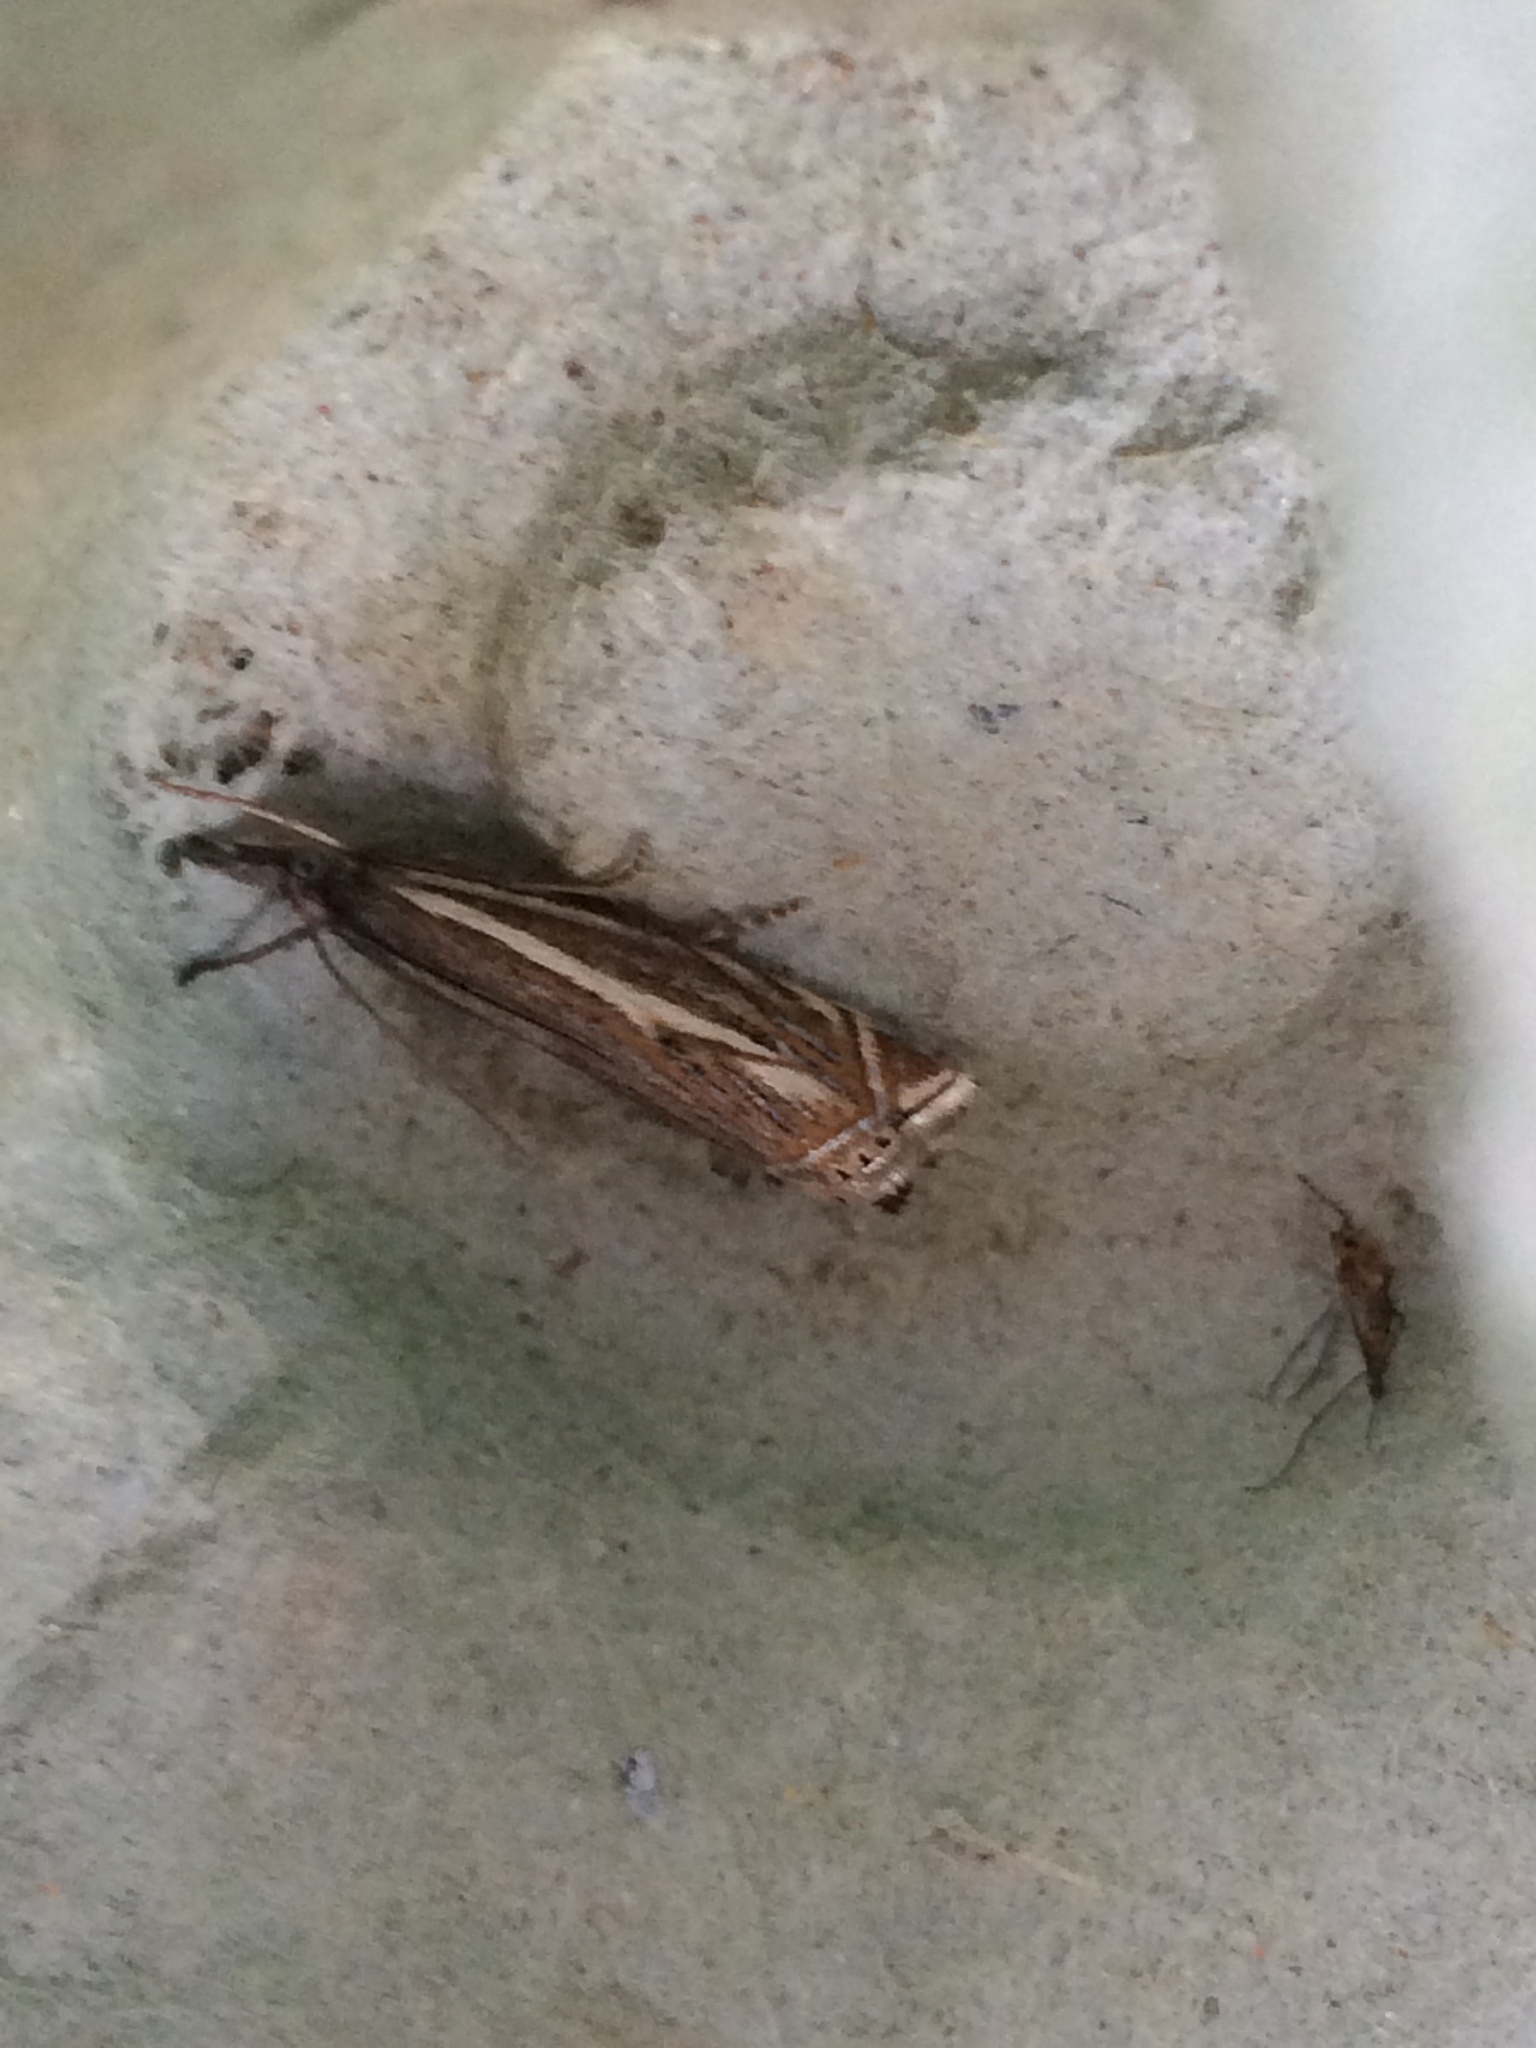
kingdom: Animalia
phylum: Arthropoda
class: Insecta
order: Lepidoptera
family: Crambidae
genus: Crambus
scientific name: Crambus nemorella
